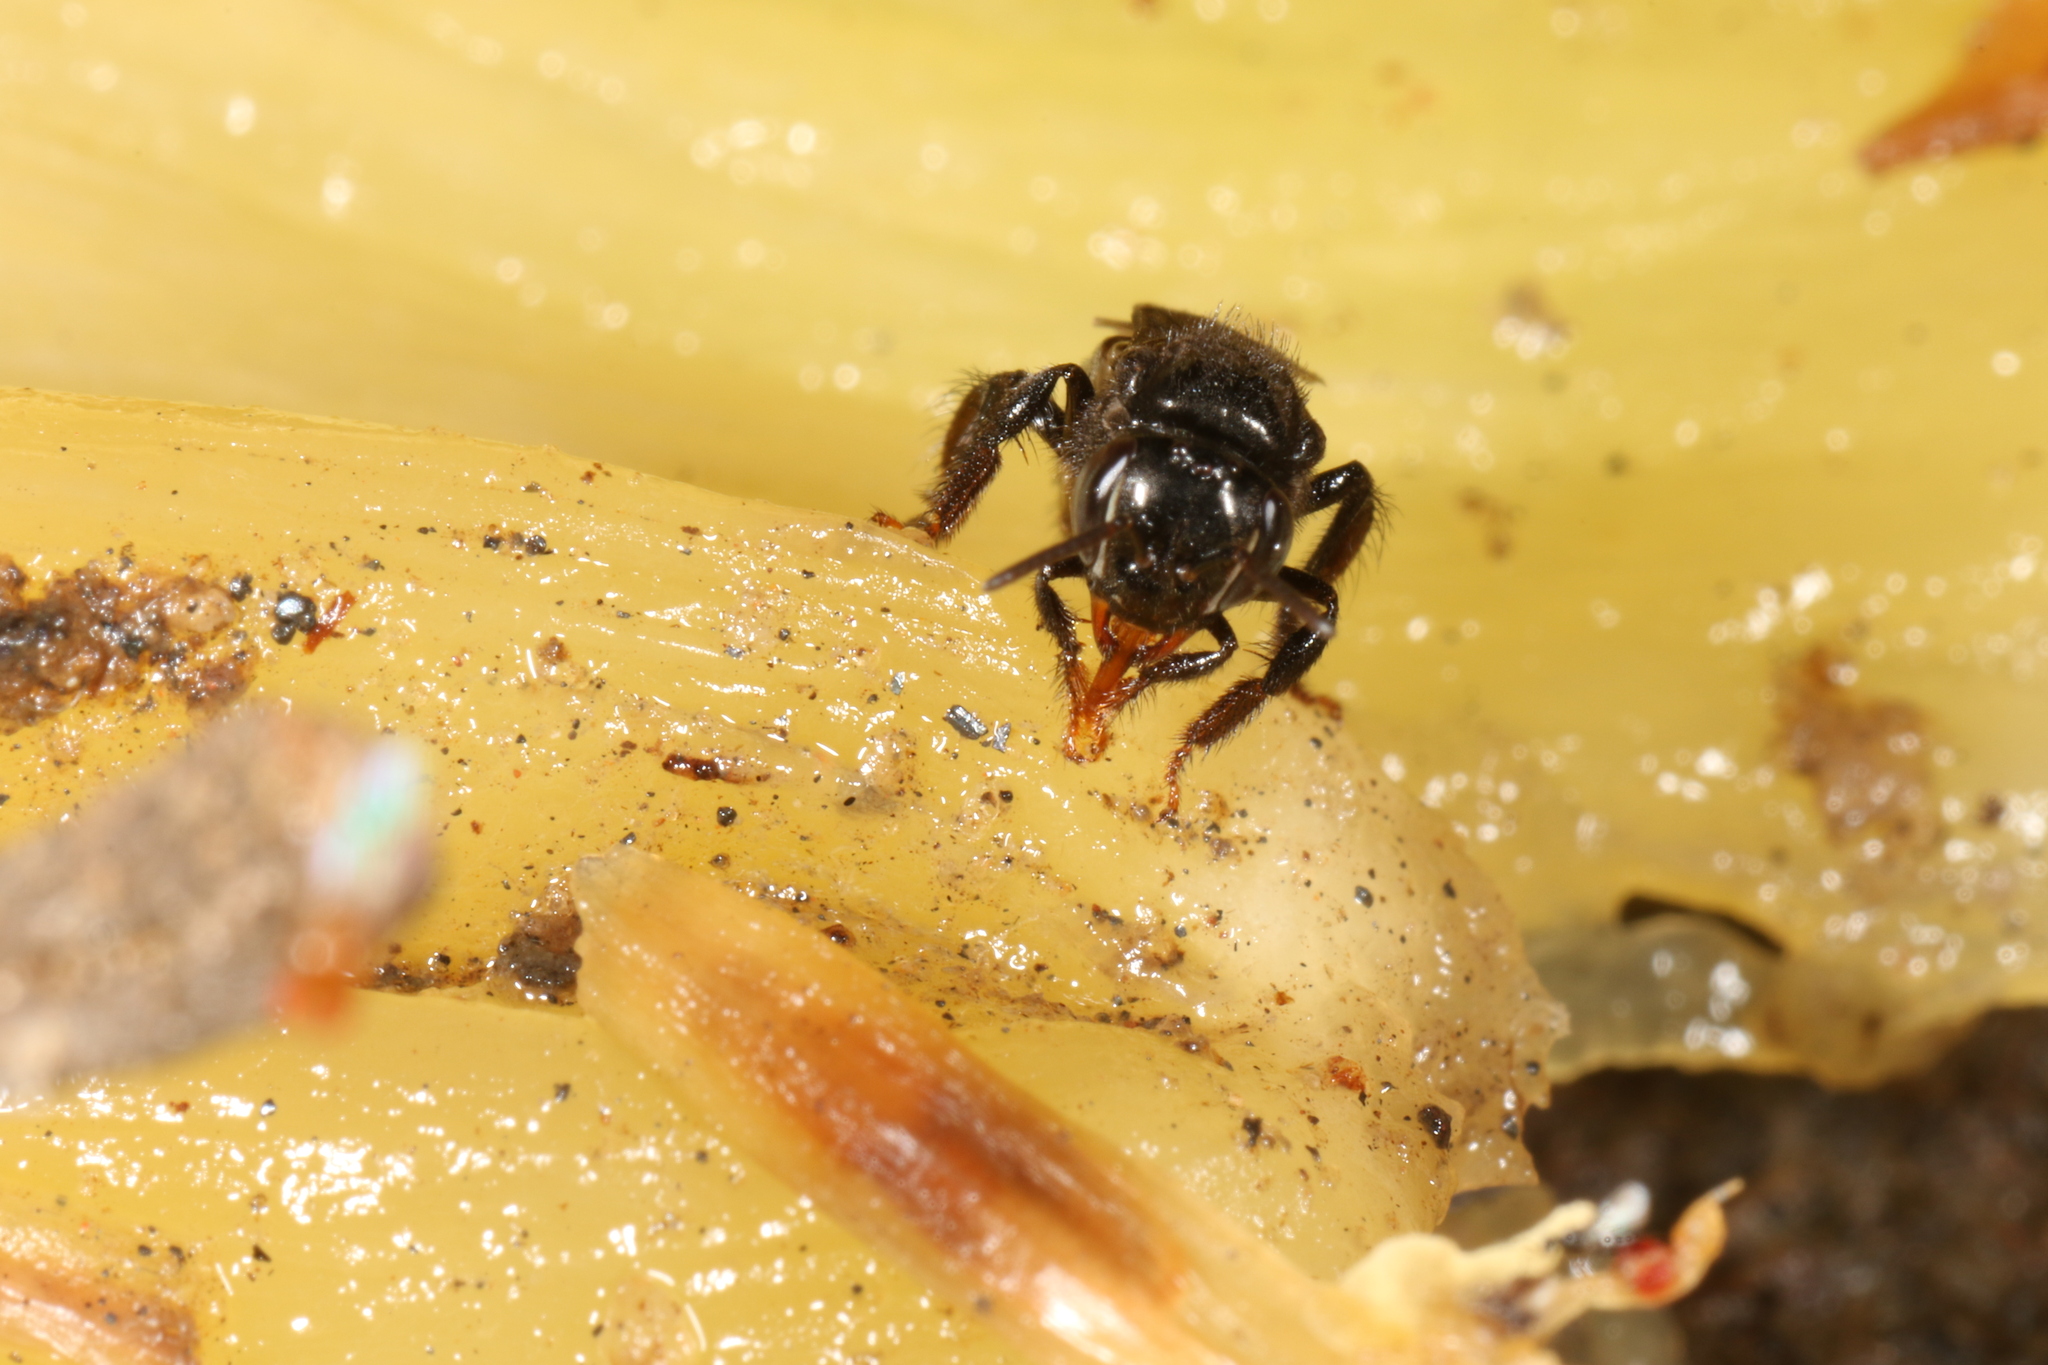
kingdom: Animalia
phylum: Arthropoda
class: Insecta
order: Hymenoptera
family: Apidae
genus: Partamona
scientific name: Partamona helleri
